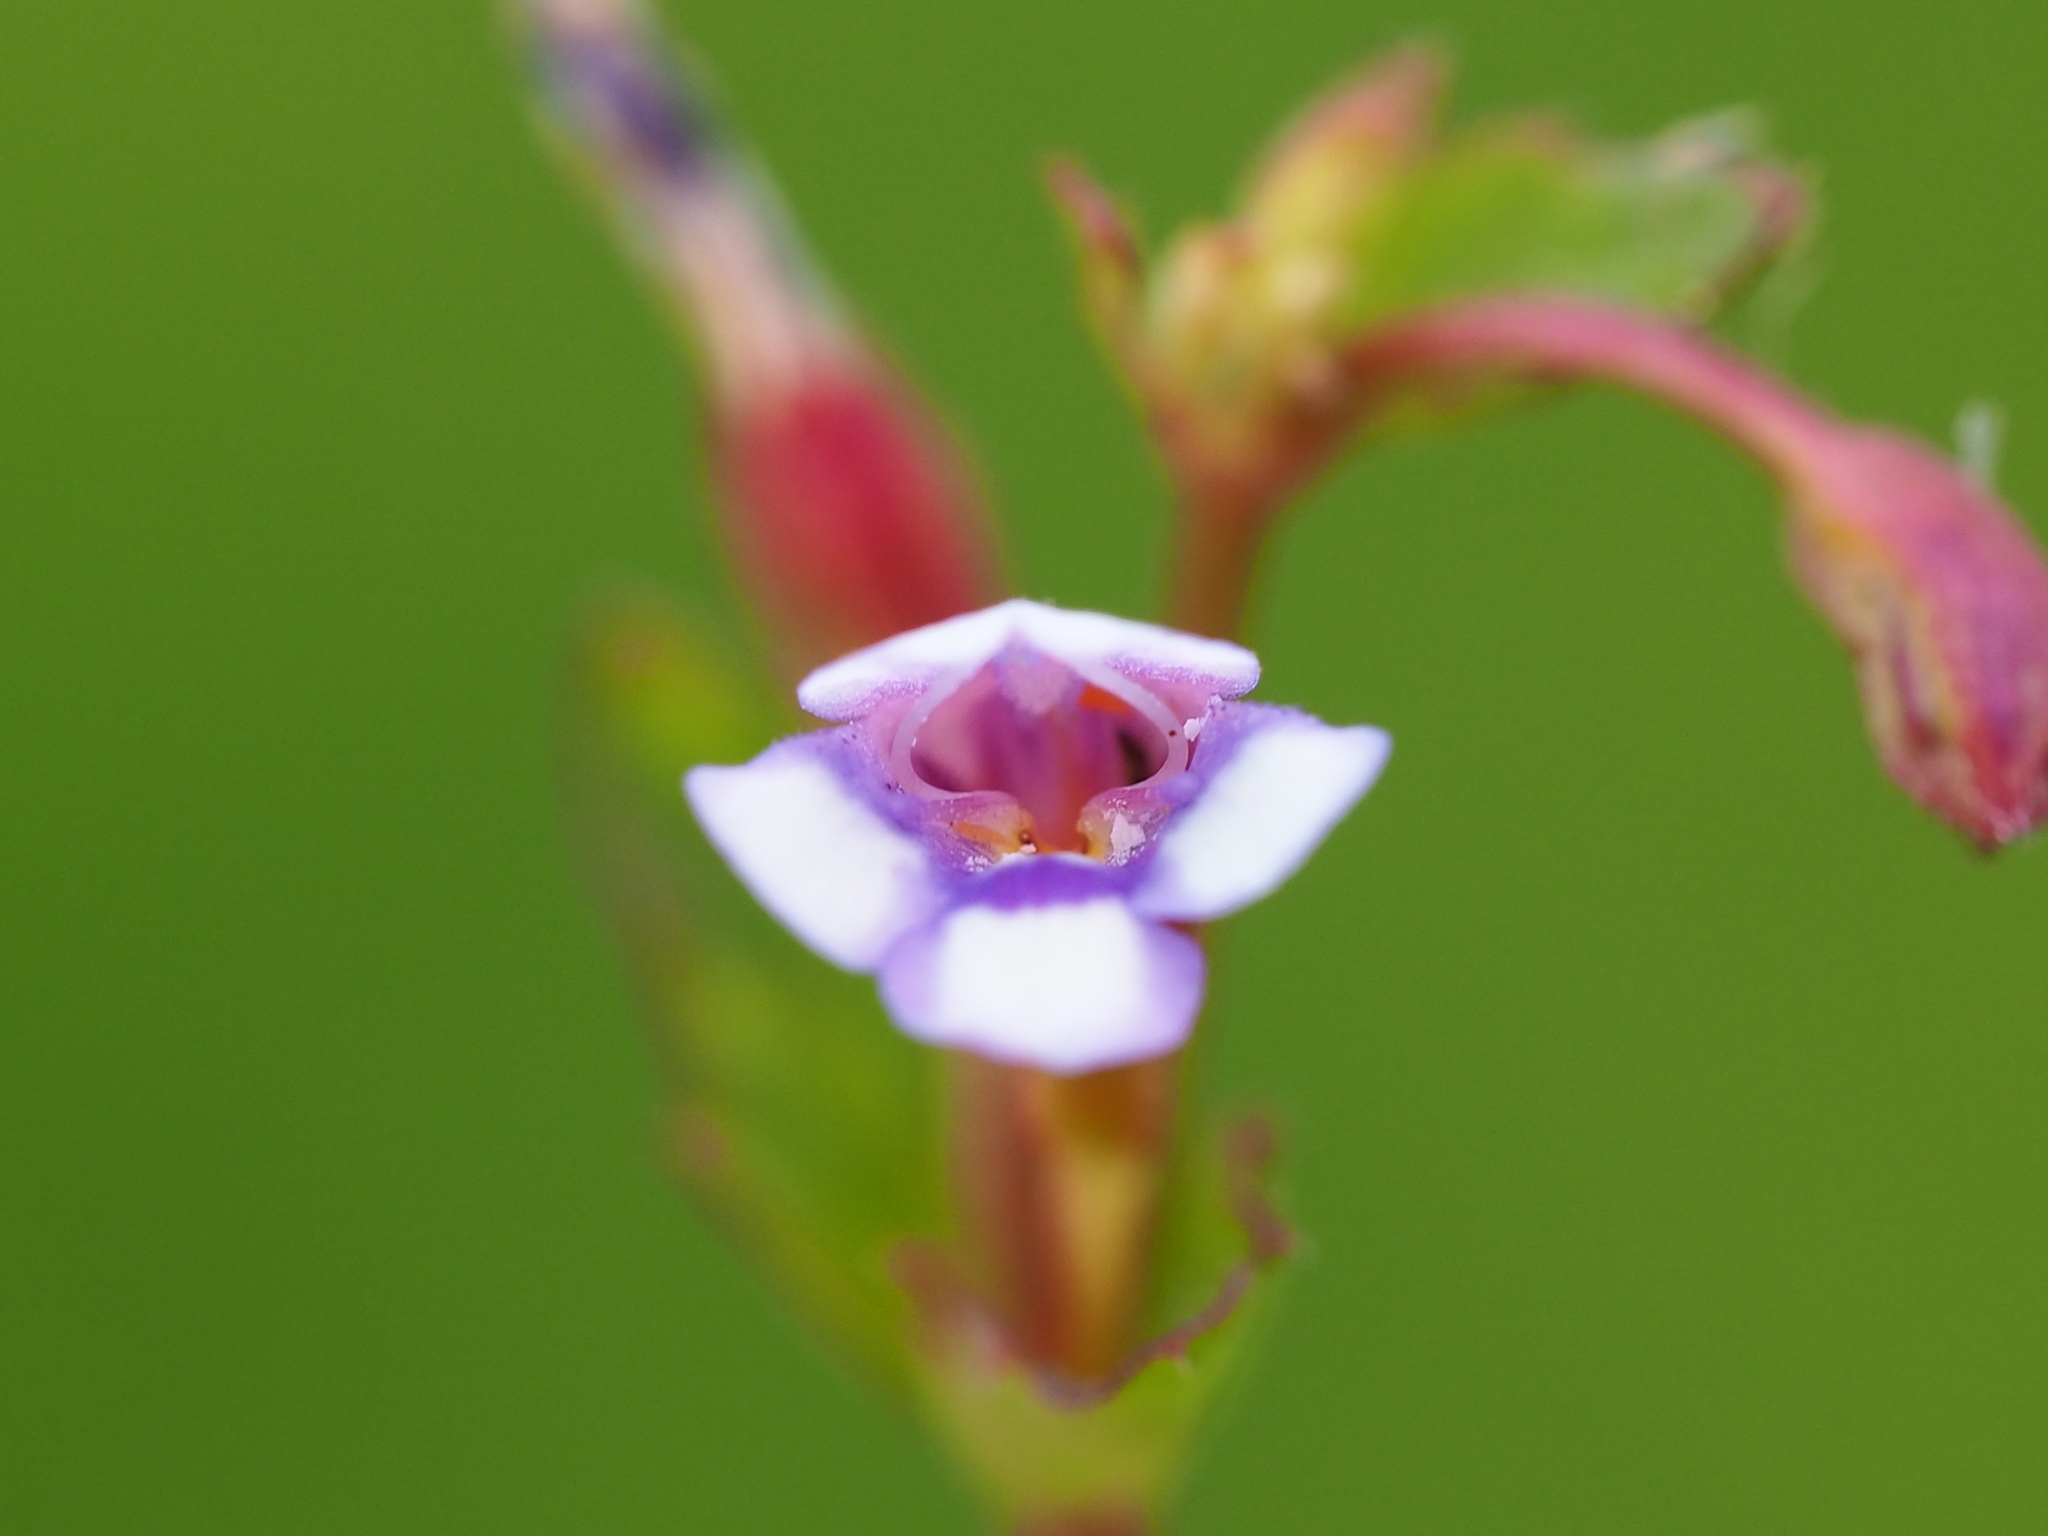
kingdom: Plantae
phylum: Tracheophyta
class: Magnoliopsida
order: Lamiales
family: Linderniaceae
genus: Torenia
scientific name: Torenia crustacea
